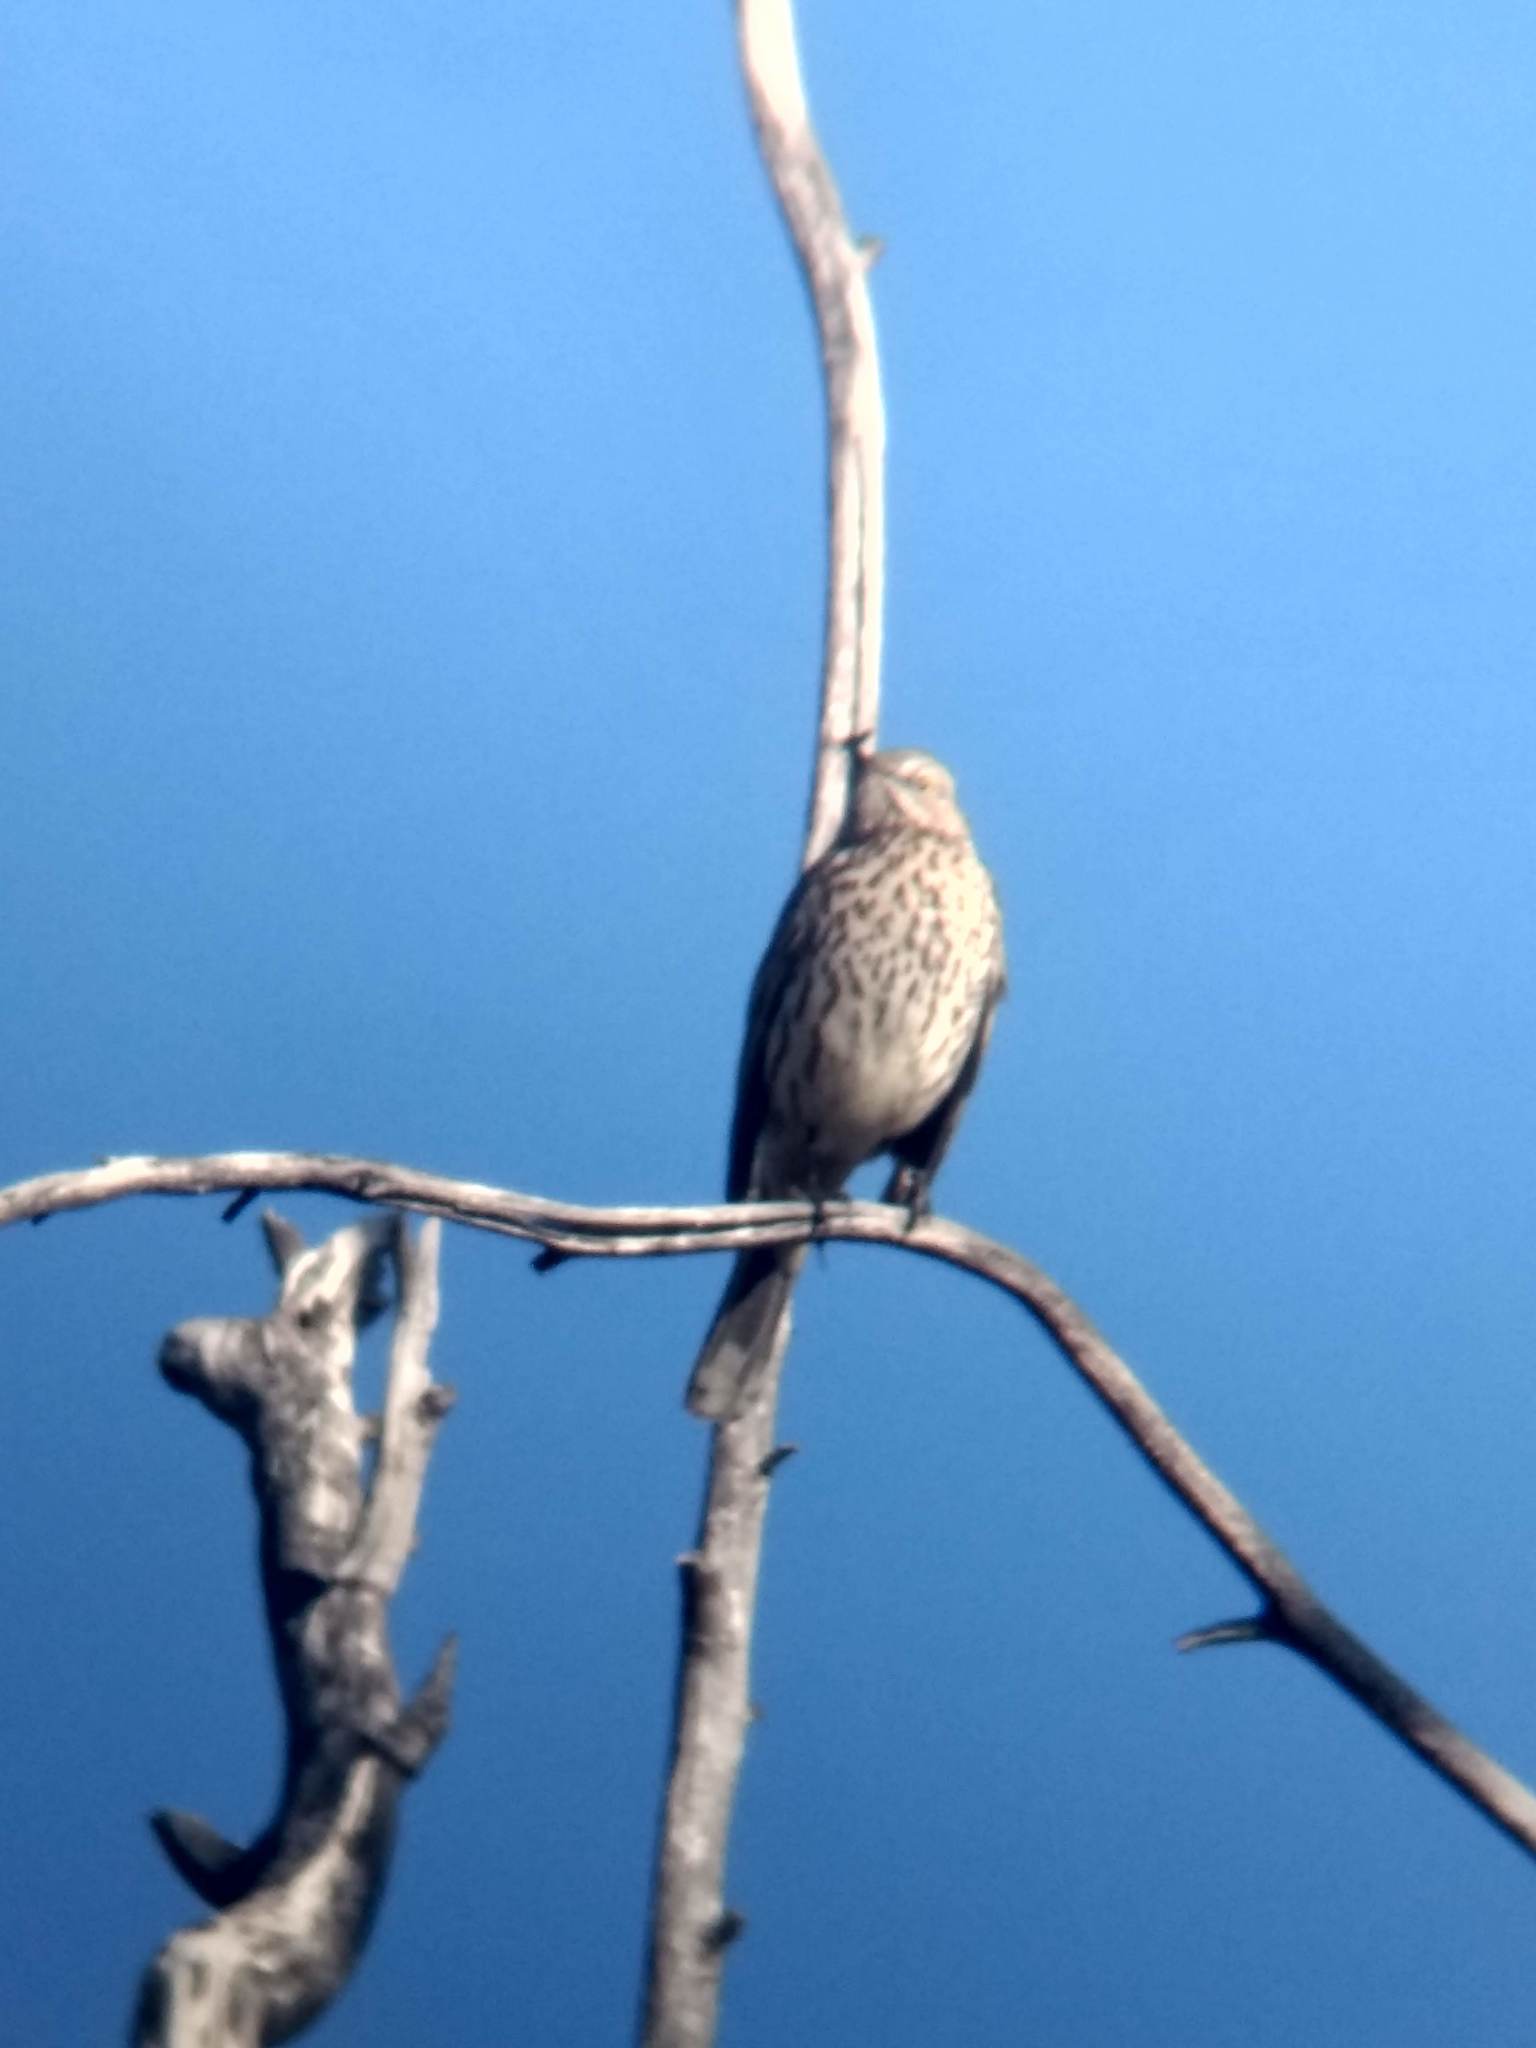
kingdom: Animalia
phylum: Chordata
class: Aves
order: Passeriformes
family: Mimidae
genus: Oreoscoptes
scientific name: Oreoscoptes montanus
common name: Sage thrasher
